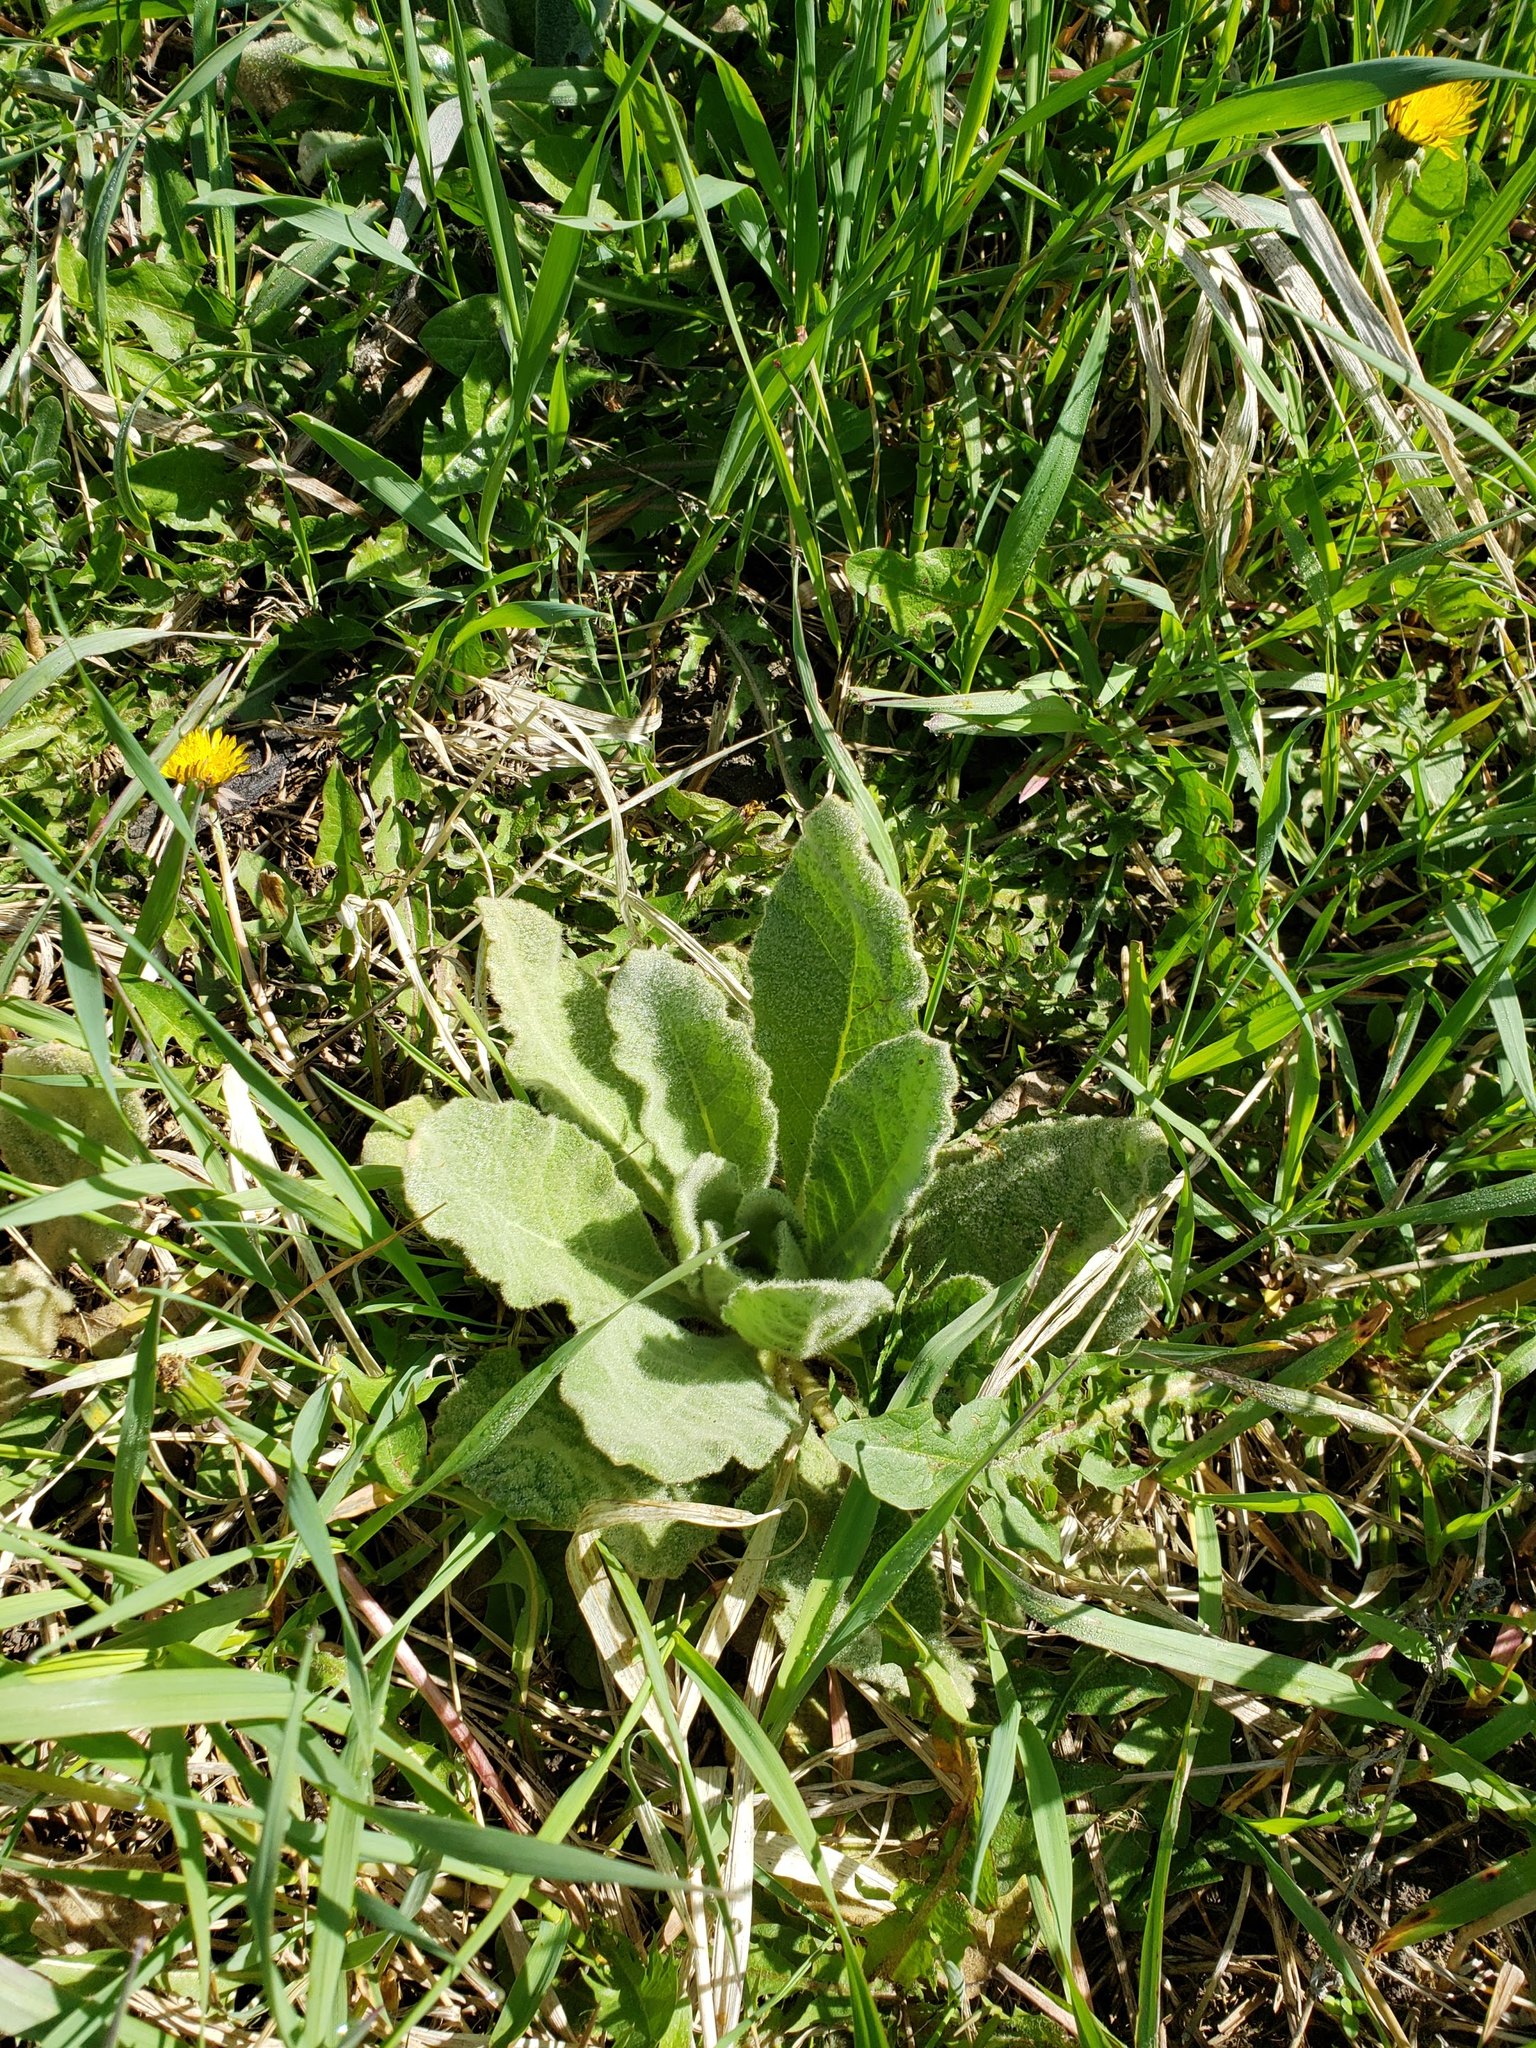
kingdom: Plantae
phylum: Tracheophyta
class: Magnoliopsida
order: Lamiales
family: Scrophulariaceae
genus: Verbascum
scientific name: Verbascum thapsus
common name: Common mullein
